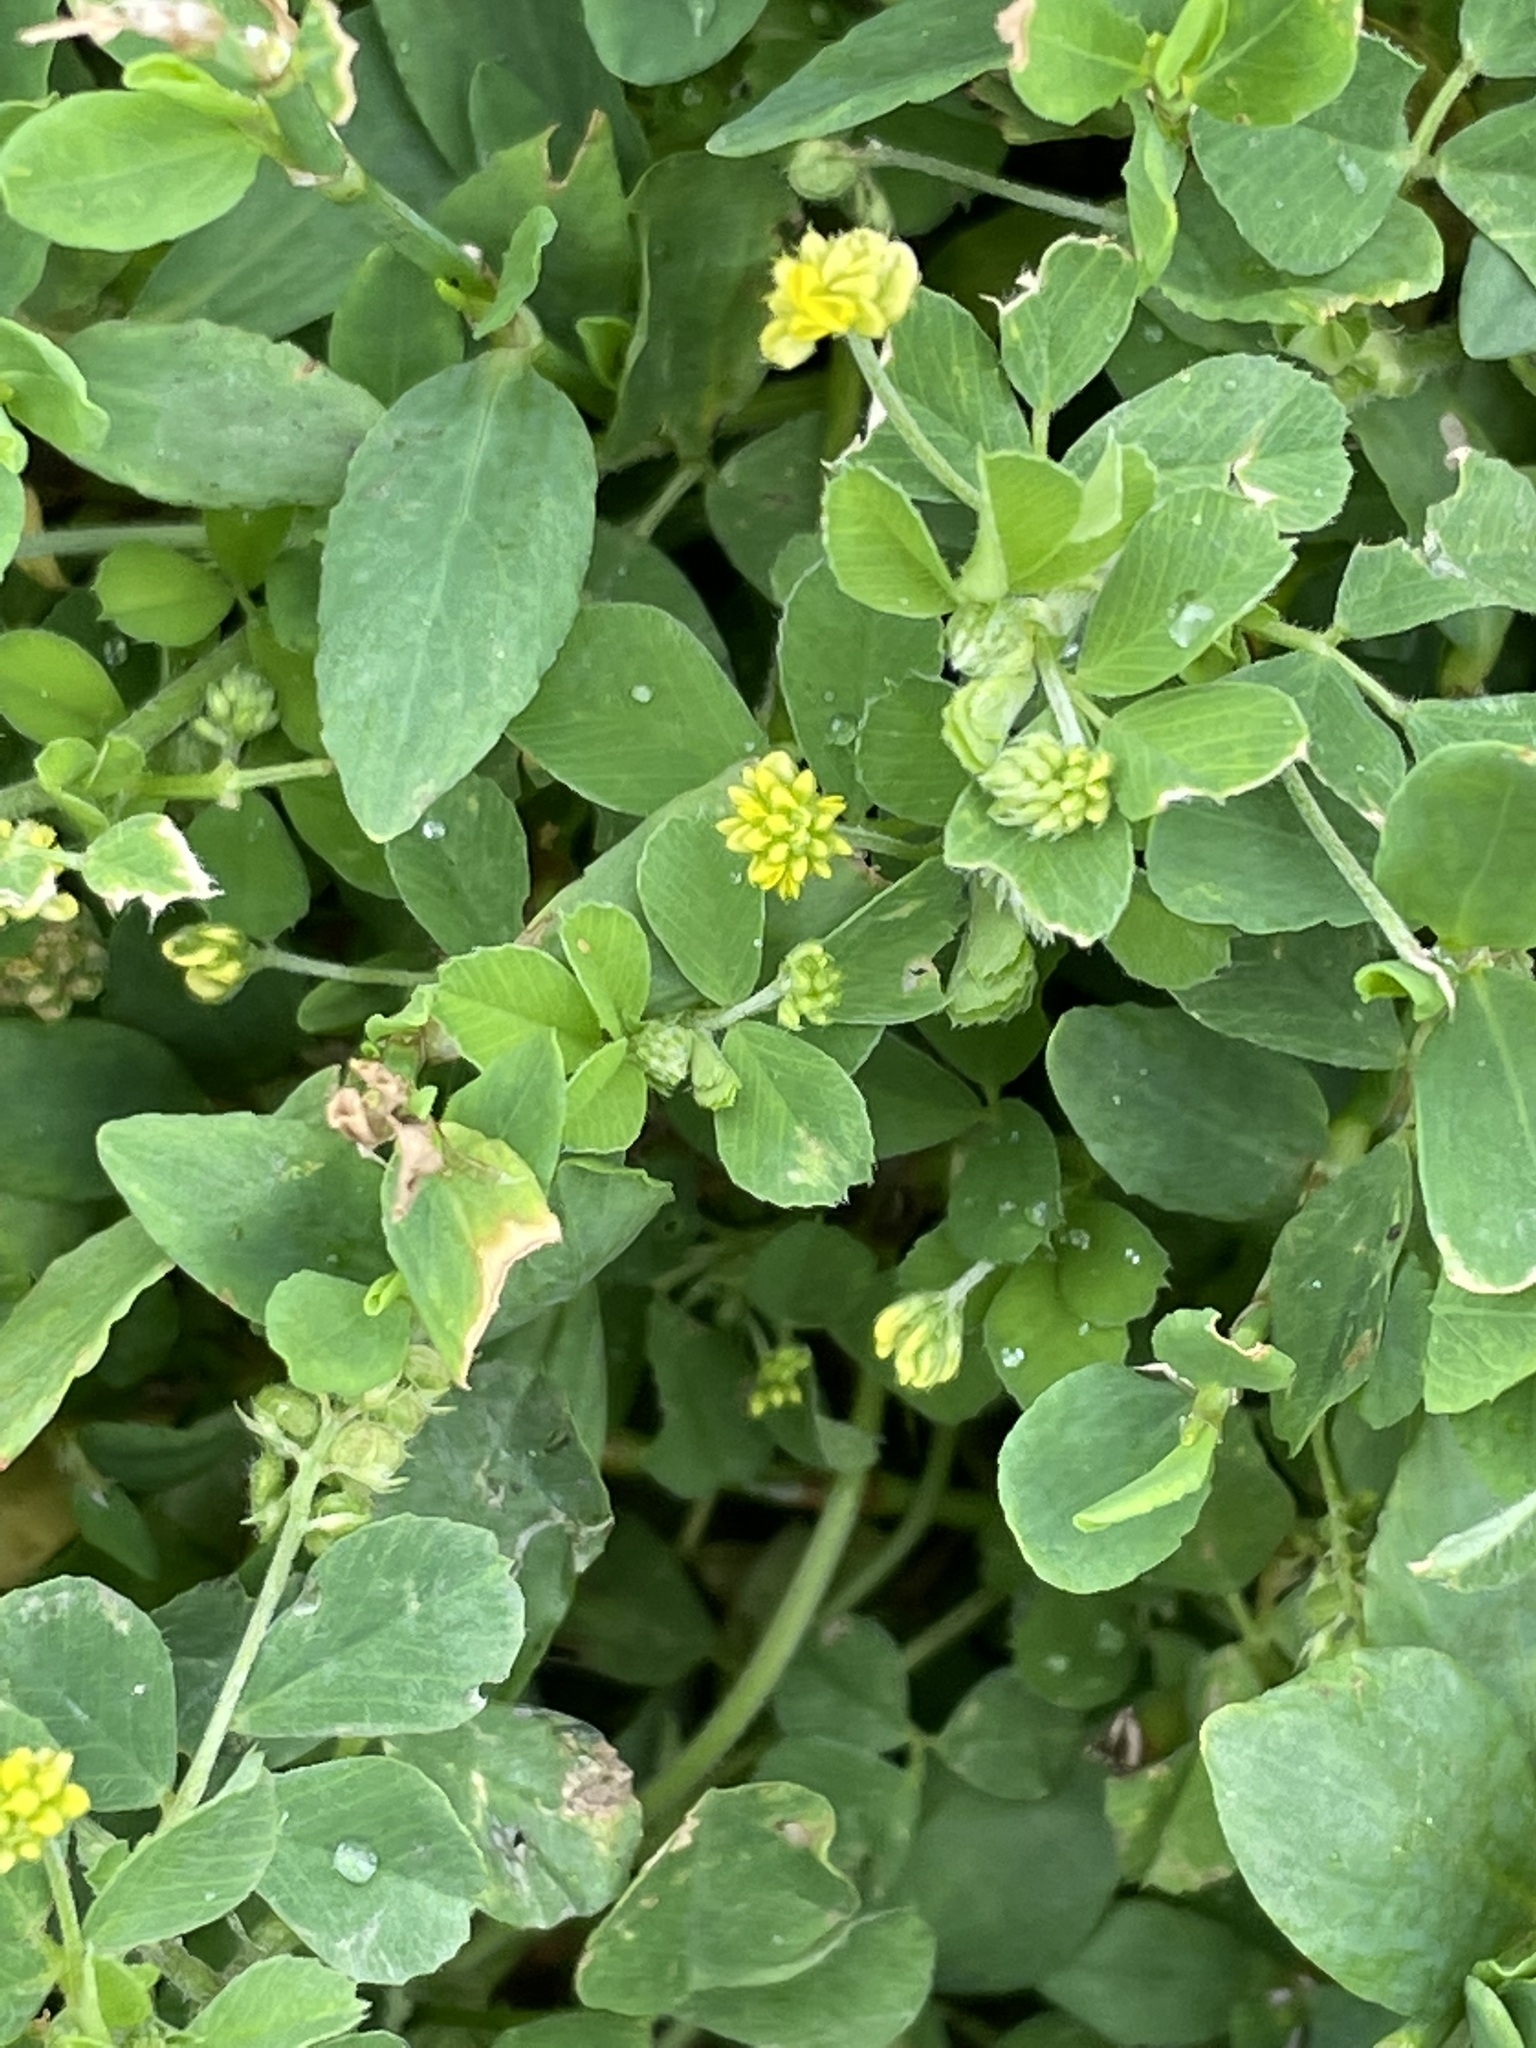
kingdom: Plantae
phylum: Tracheophyta
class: Magnoliopsida
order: Fabales
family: Fabaceae
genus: Medicago
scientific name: Medicago lupulina
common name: Black medick
